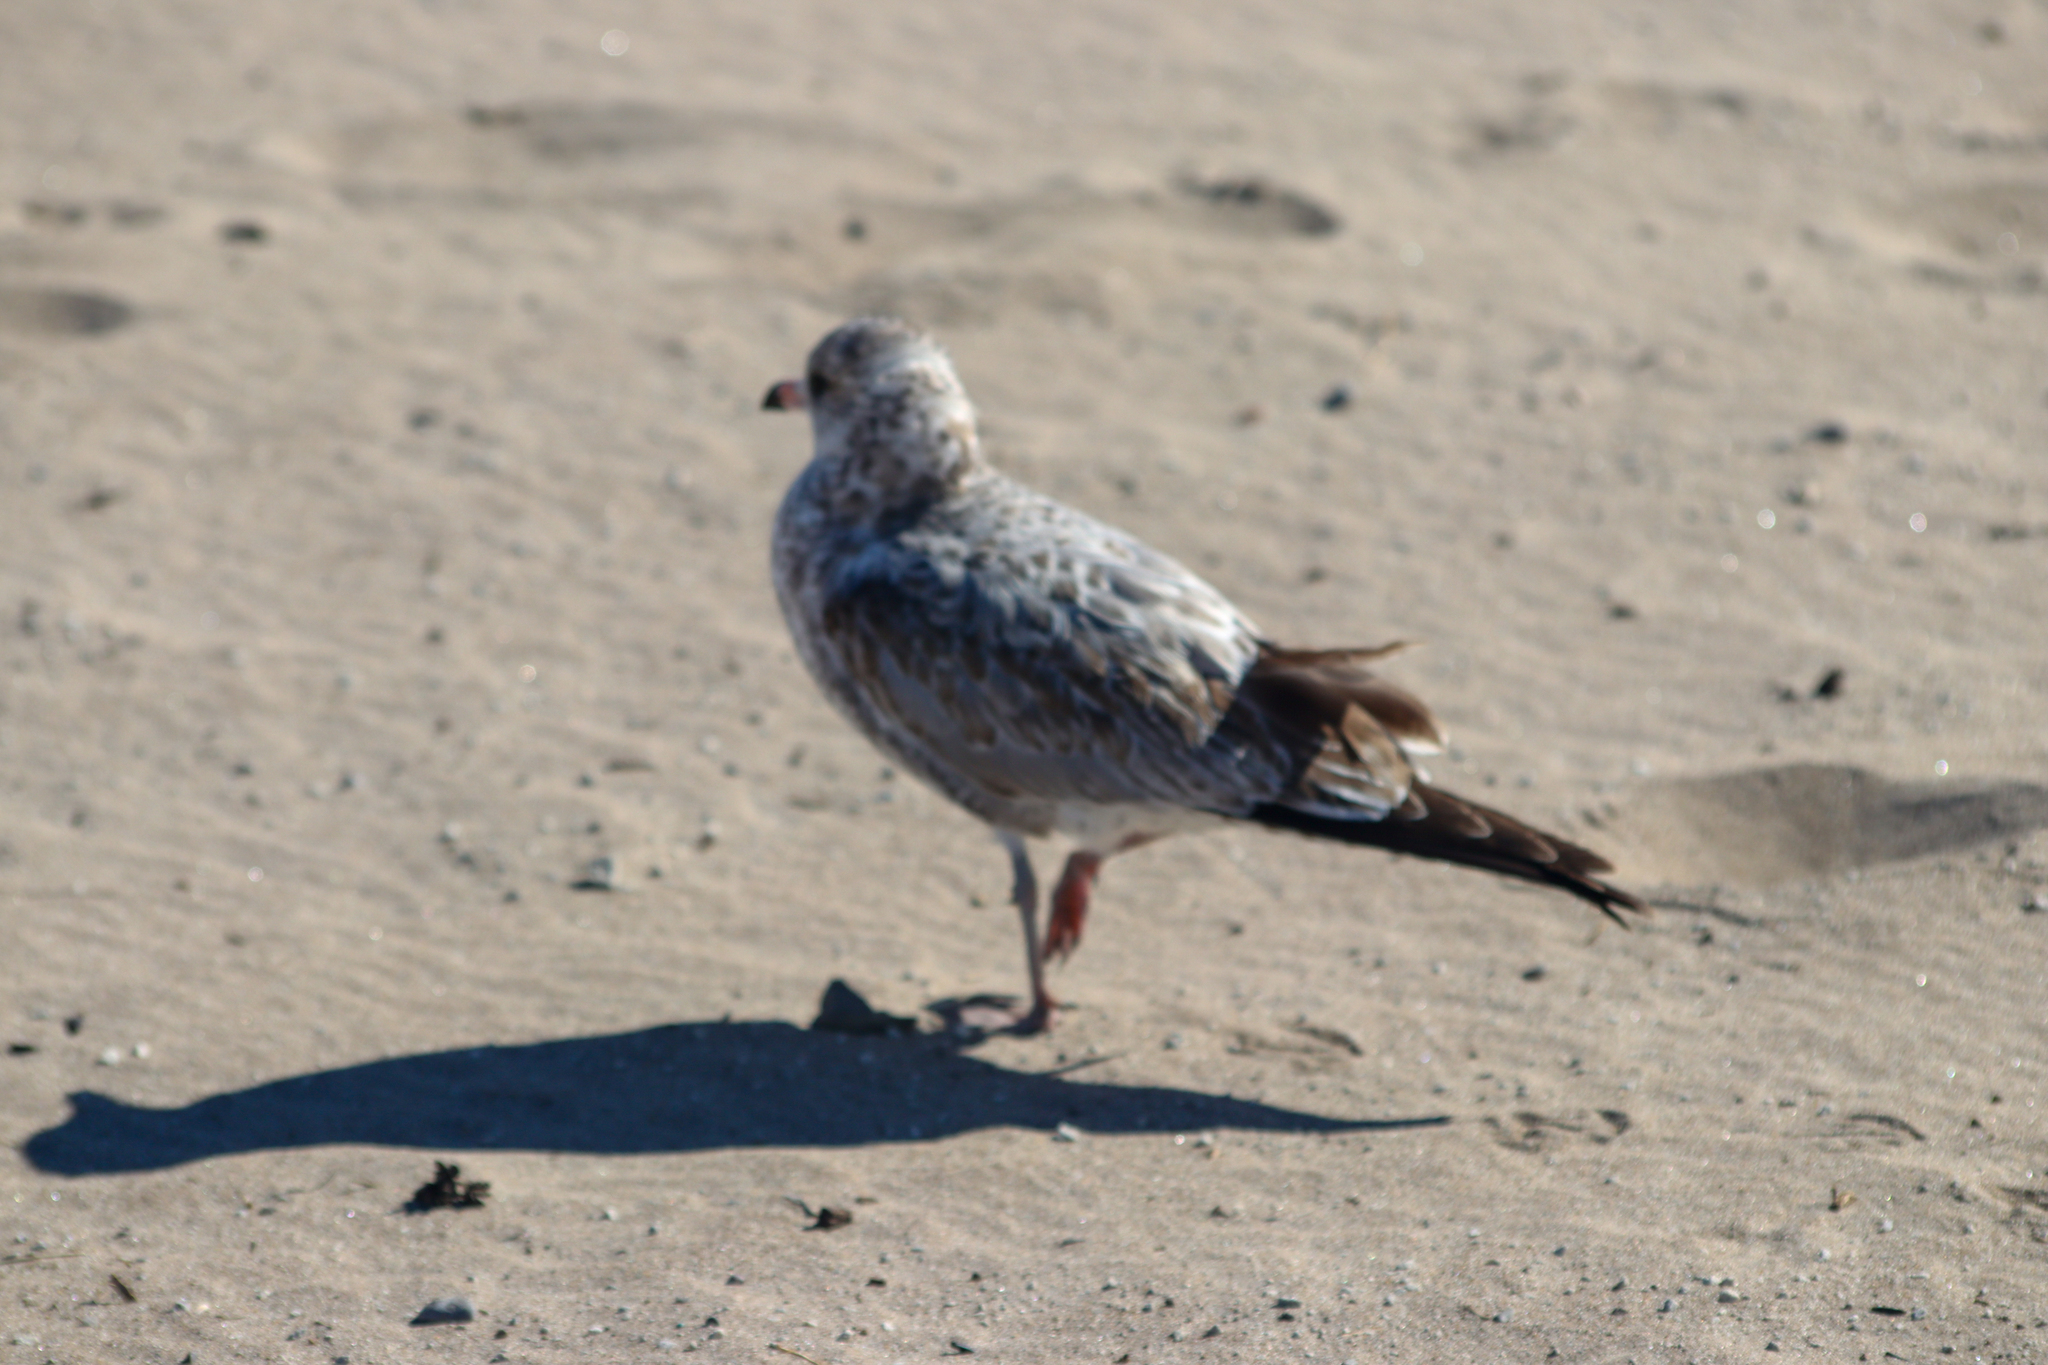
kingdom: Animalia
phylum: Chordata
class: Aves
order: Charadriiformes
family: Laridae
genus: Larus
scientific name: Larus delawarensis
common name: Ring-billed gull
